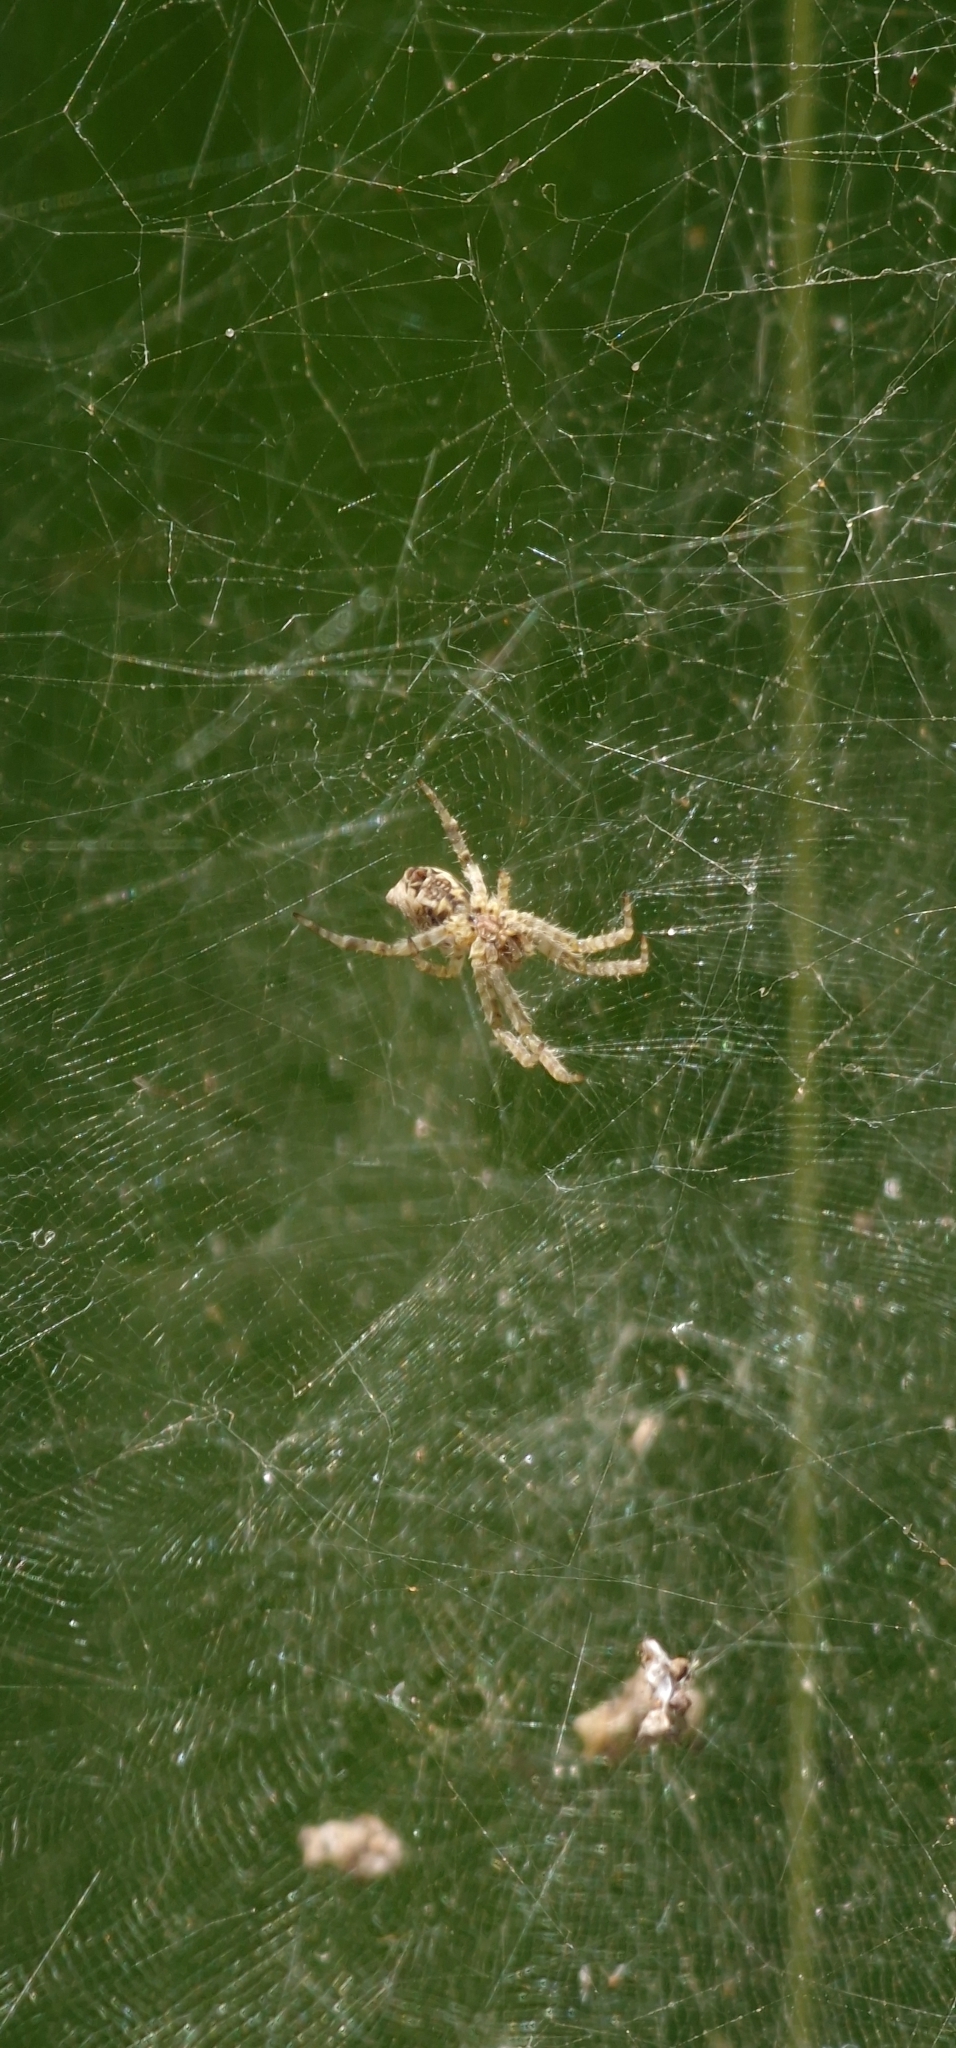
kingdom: Animalia
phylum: Arthropoda
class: Arachnida
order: Araneae
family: Araneidae
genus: Cyrtophora
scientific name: Cyrtophora citricola
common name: Orb weavers
